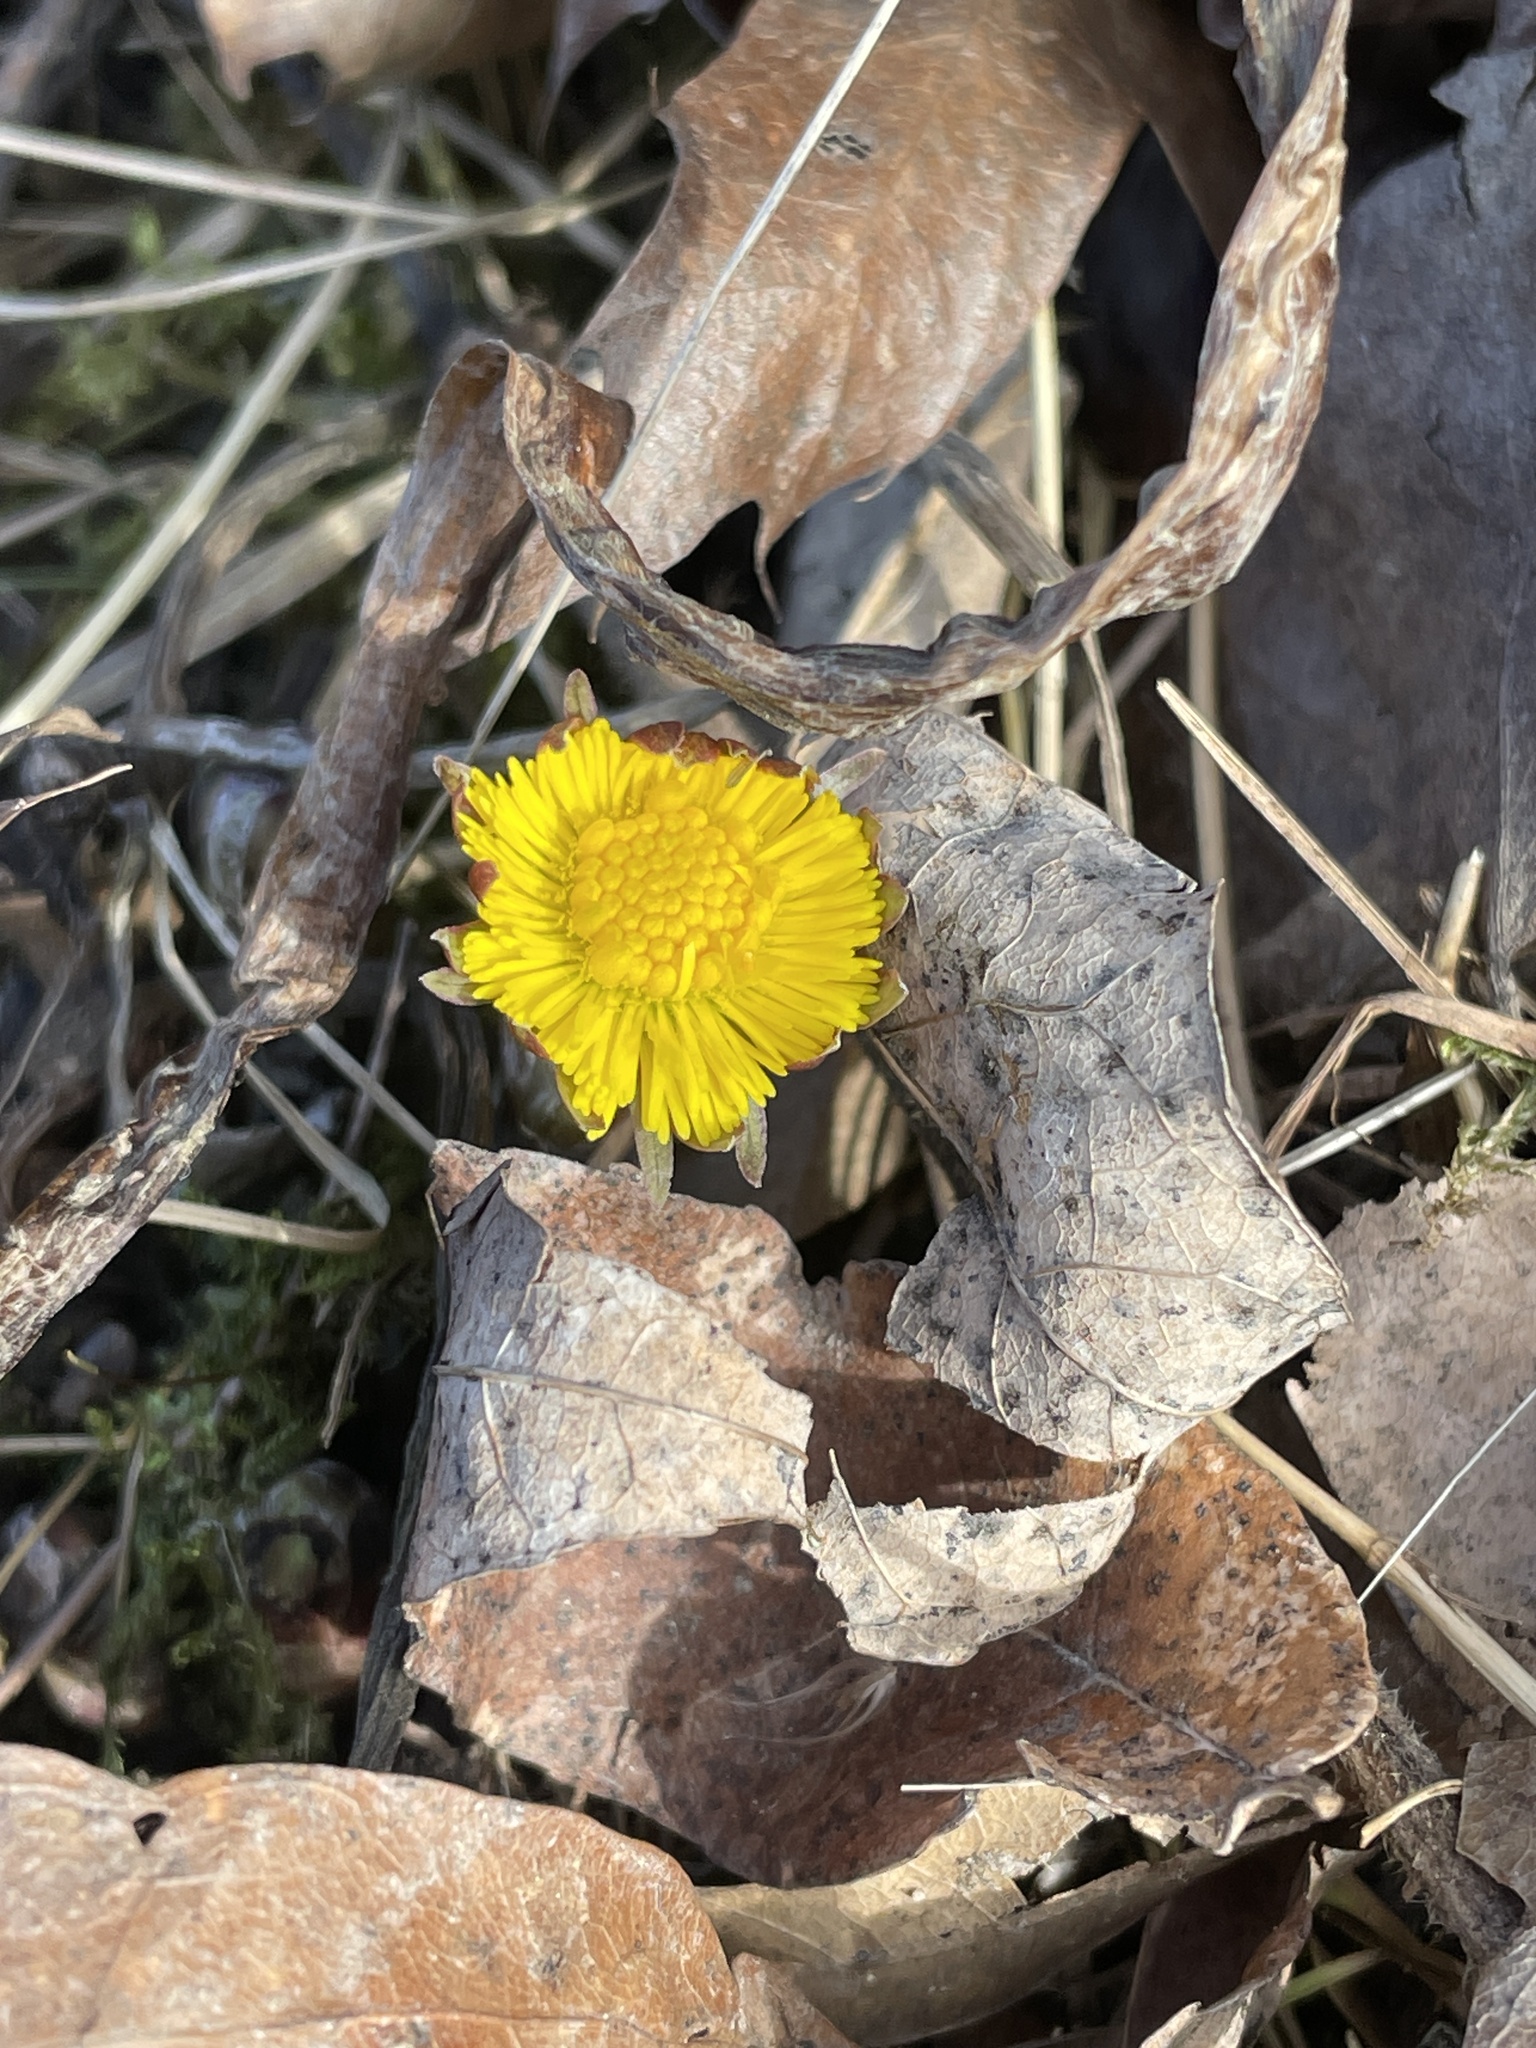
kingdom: Plantae
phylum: Tracheophyta
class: Magnoliopsida
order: Asterales
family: Asteraceae
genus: Tussilago
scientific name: Tussilago farfara
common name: Coltsfoot
